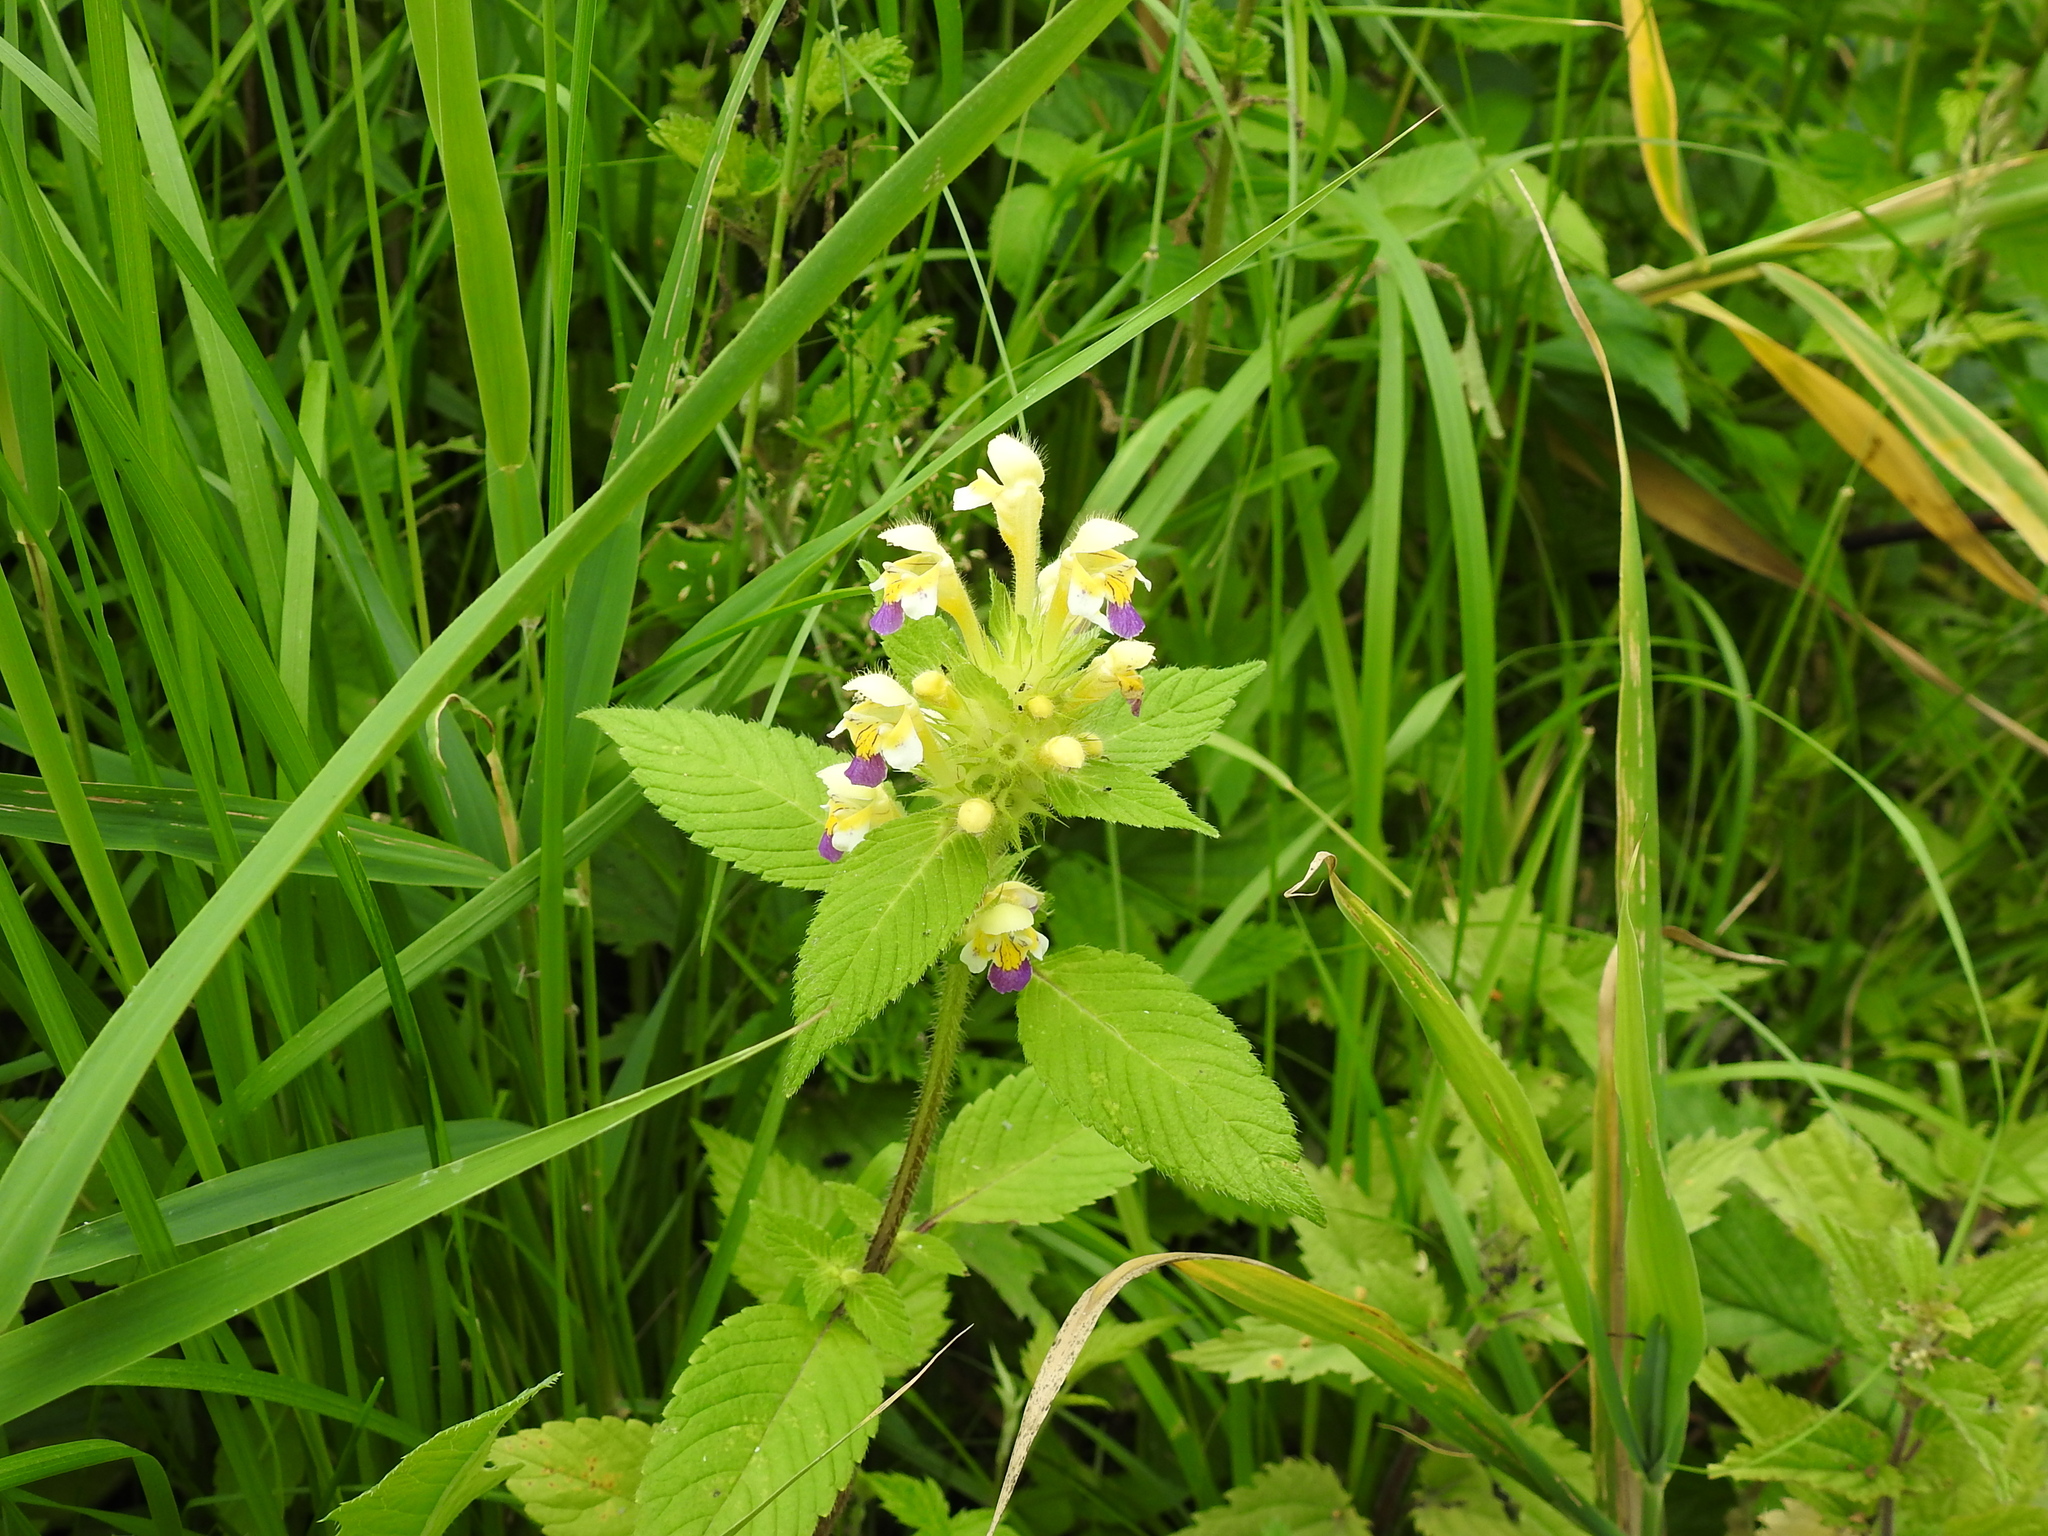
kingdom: Plantae
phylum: Tracheophyta
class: Magnoliopsida
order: Lamiales
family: Lamiaceae
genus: Galeopsis
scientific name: Galeopsis speciosa
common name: Large-flowered hemp-nettle
